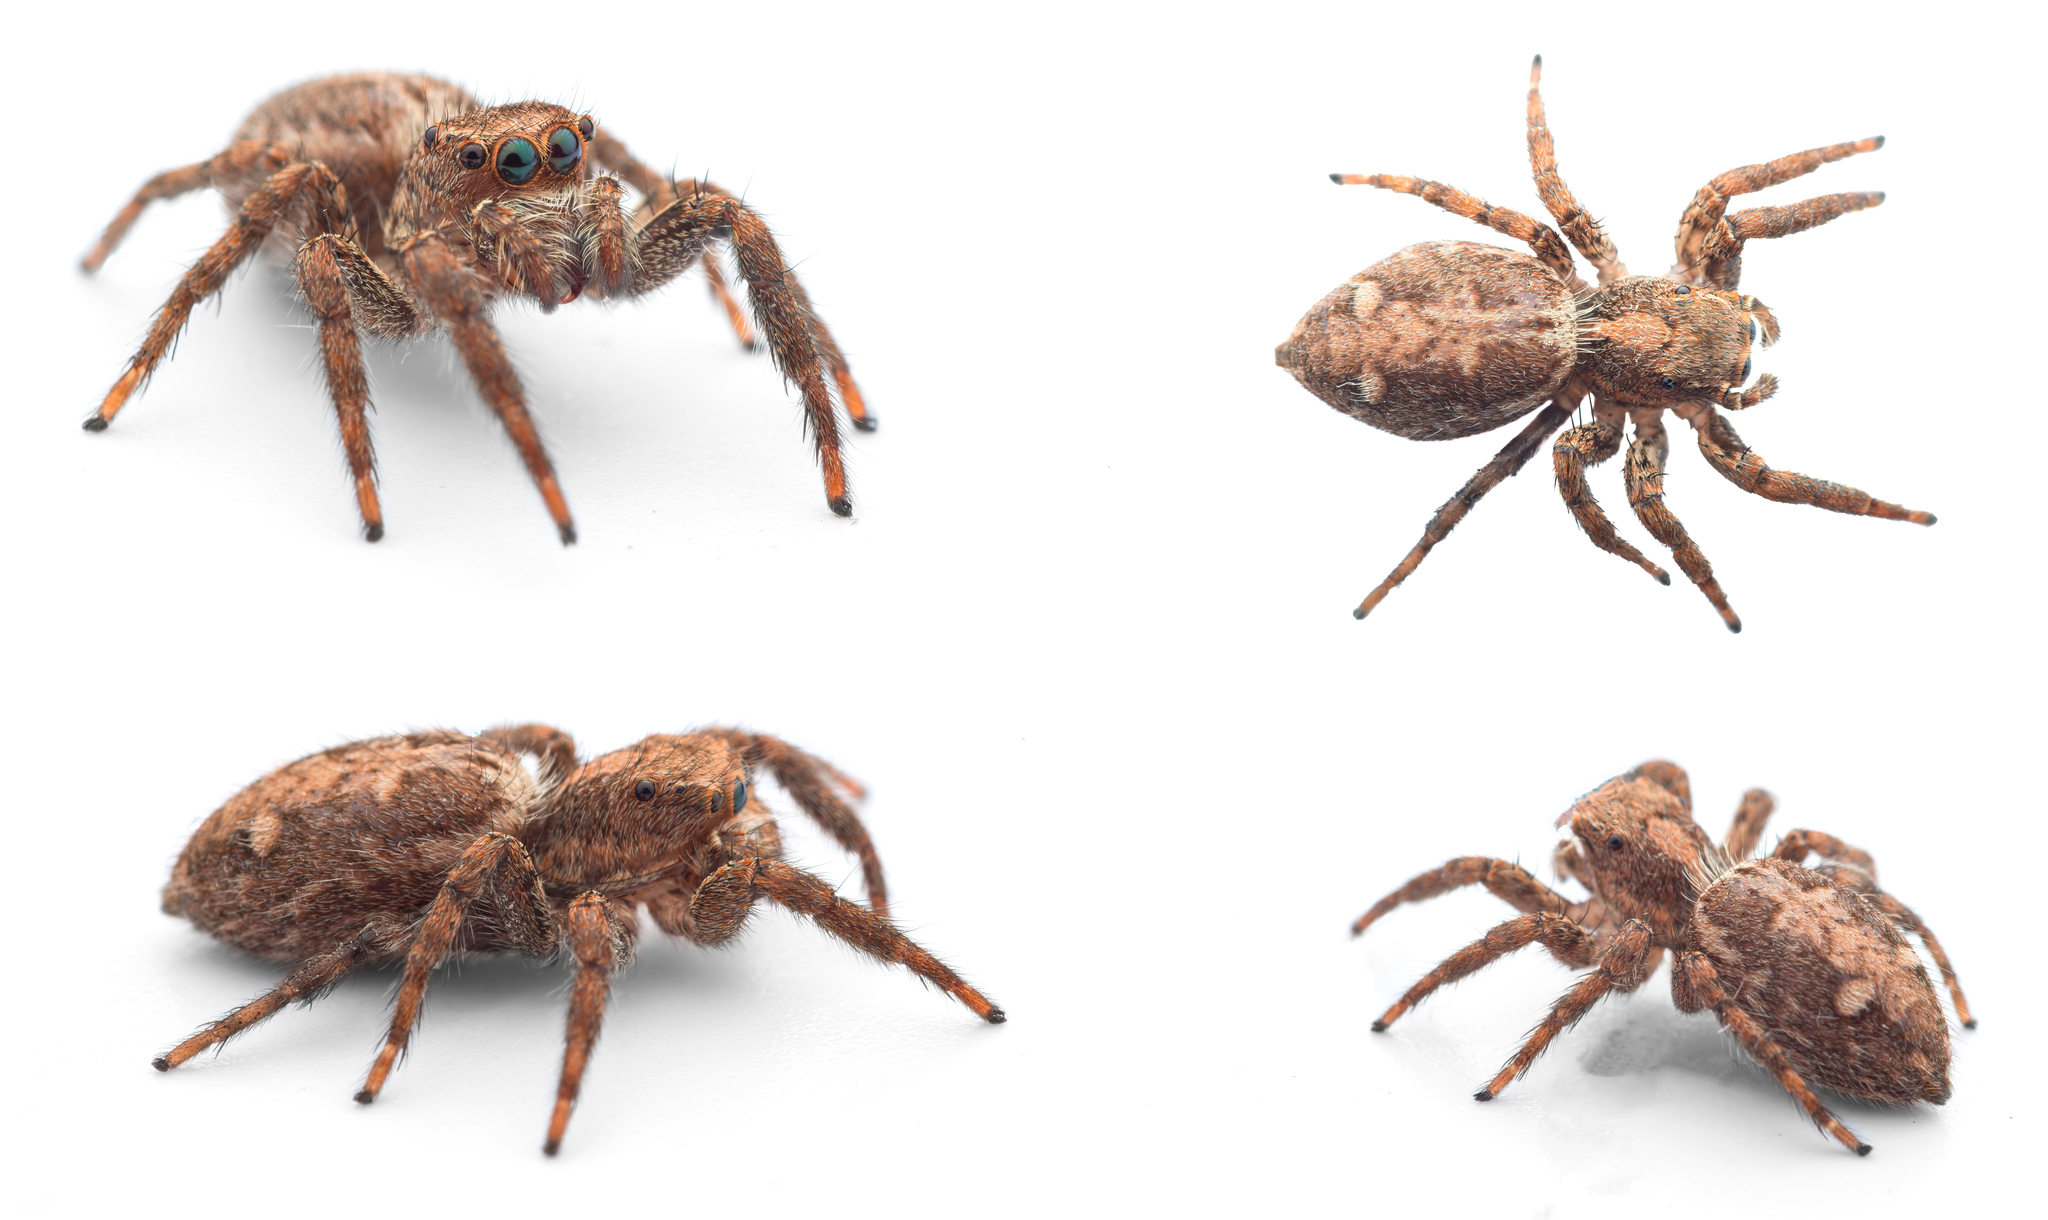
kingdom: Animalia
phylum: Arthropoda
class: Arachnida
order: Araneae
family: Salticidae
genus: Plexippus
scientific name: Plexippus paykulli
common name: Pantropical jumper
